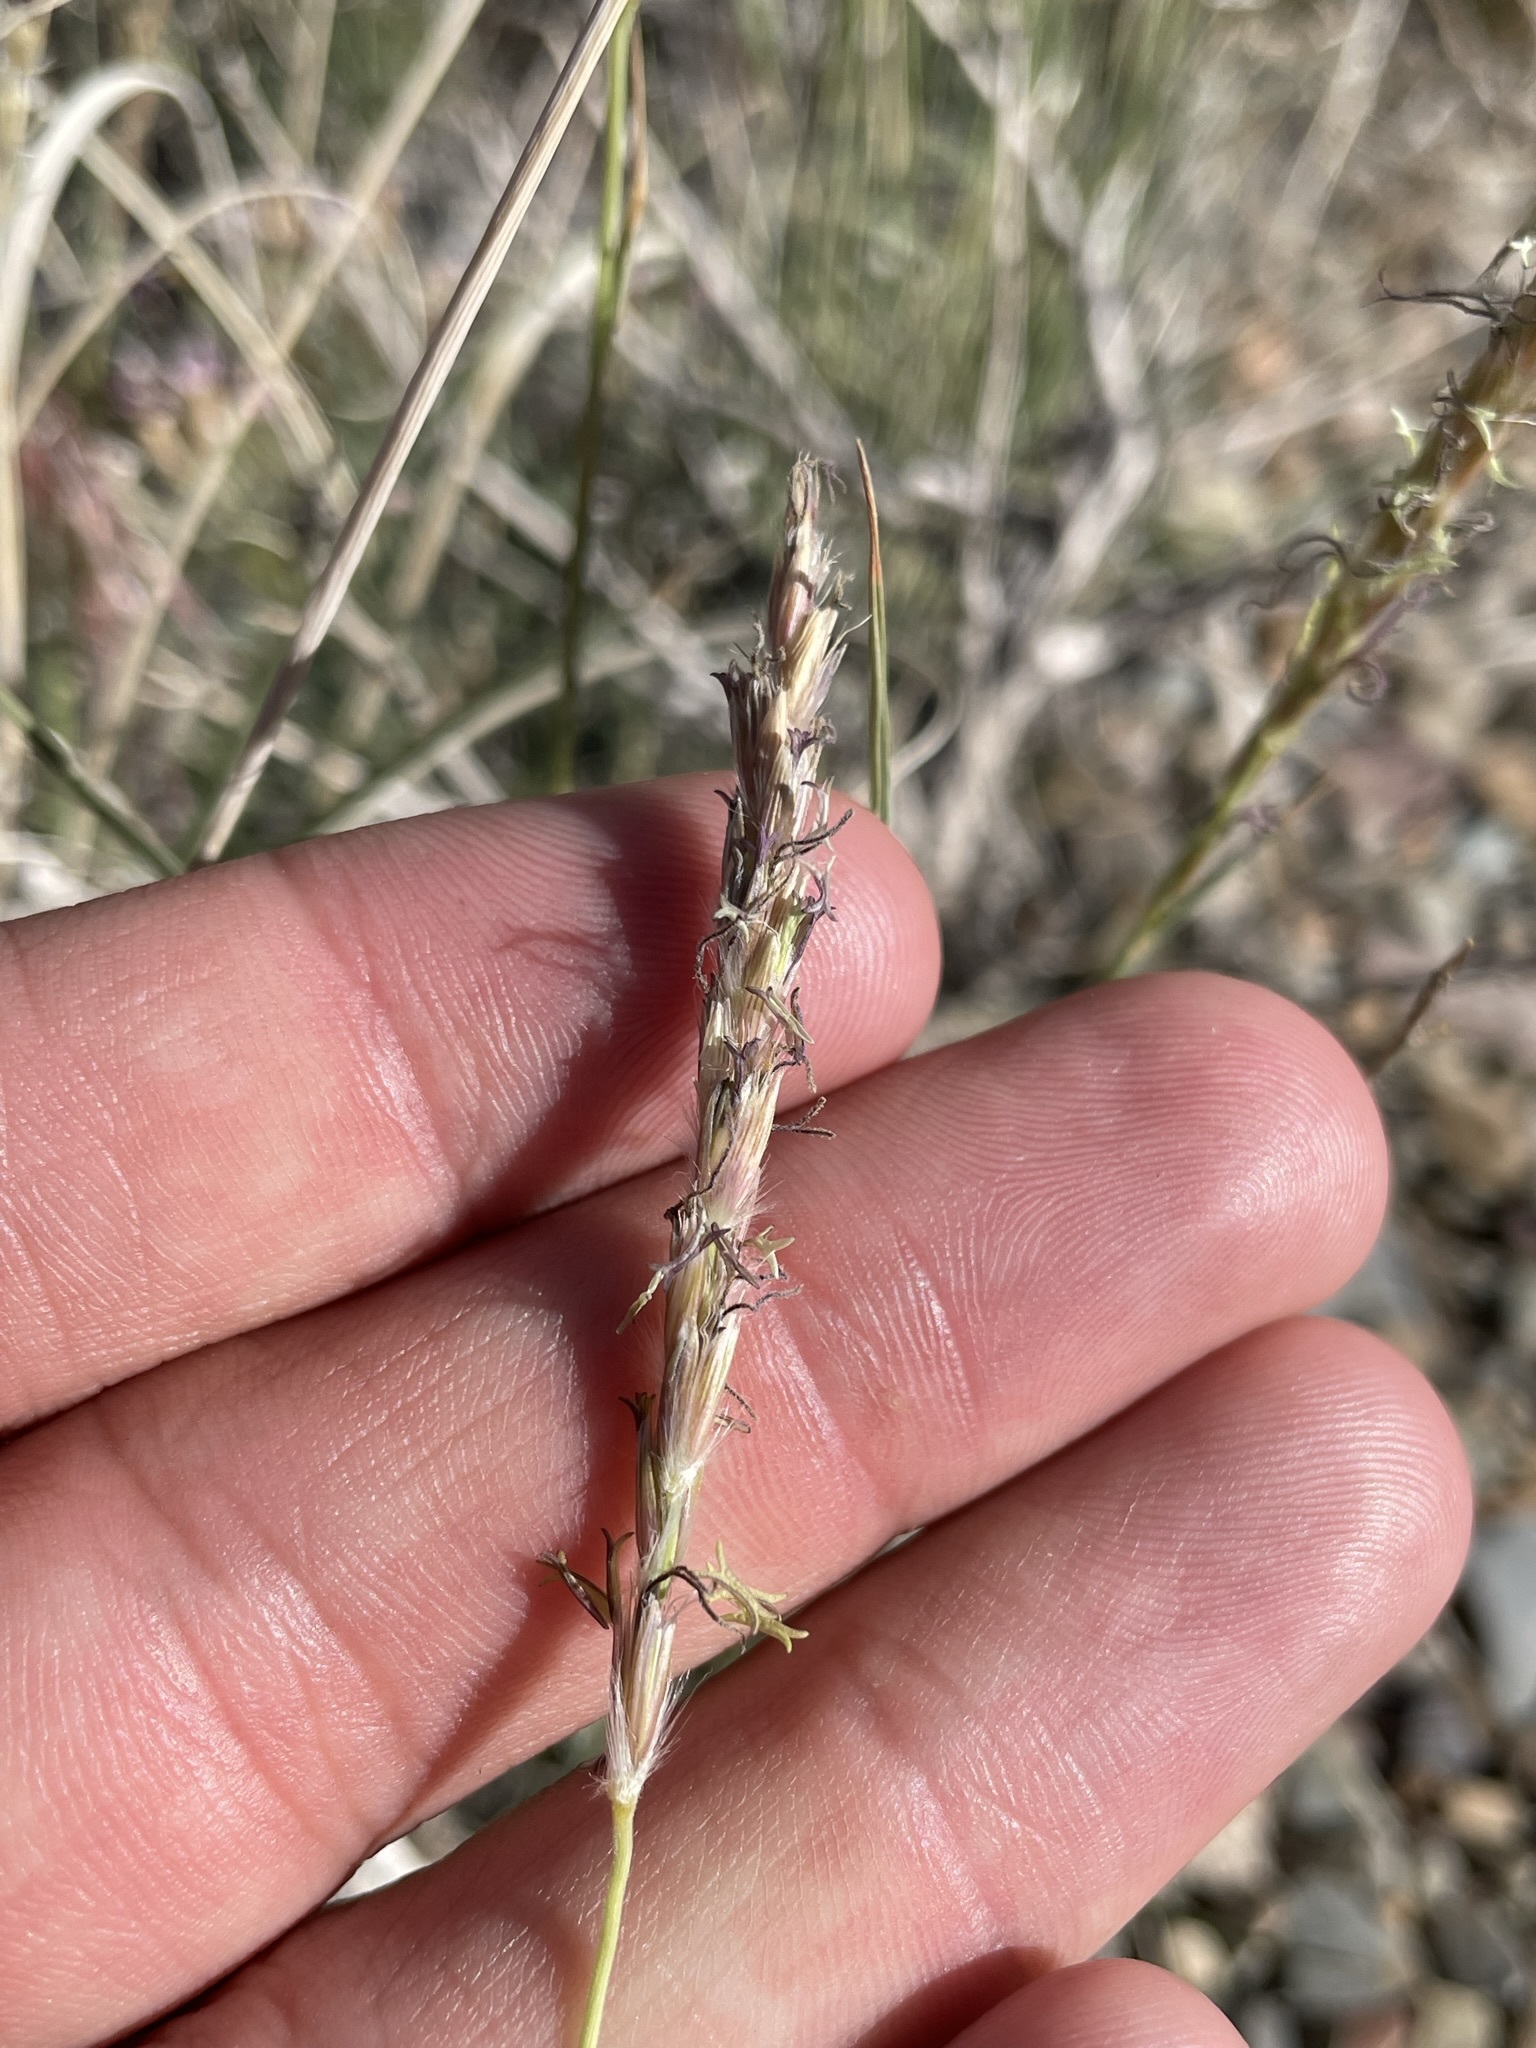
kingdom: Plantae
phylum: Tracheophyta
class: Liliopsida
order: Poales
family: Poaceae
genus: Hilaria
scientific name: Hilaria jamesii
